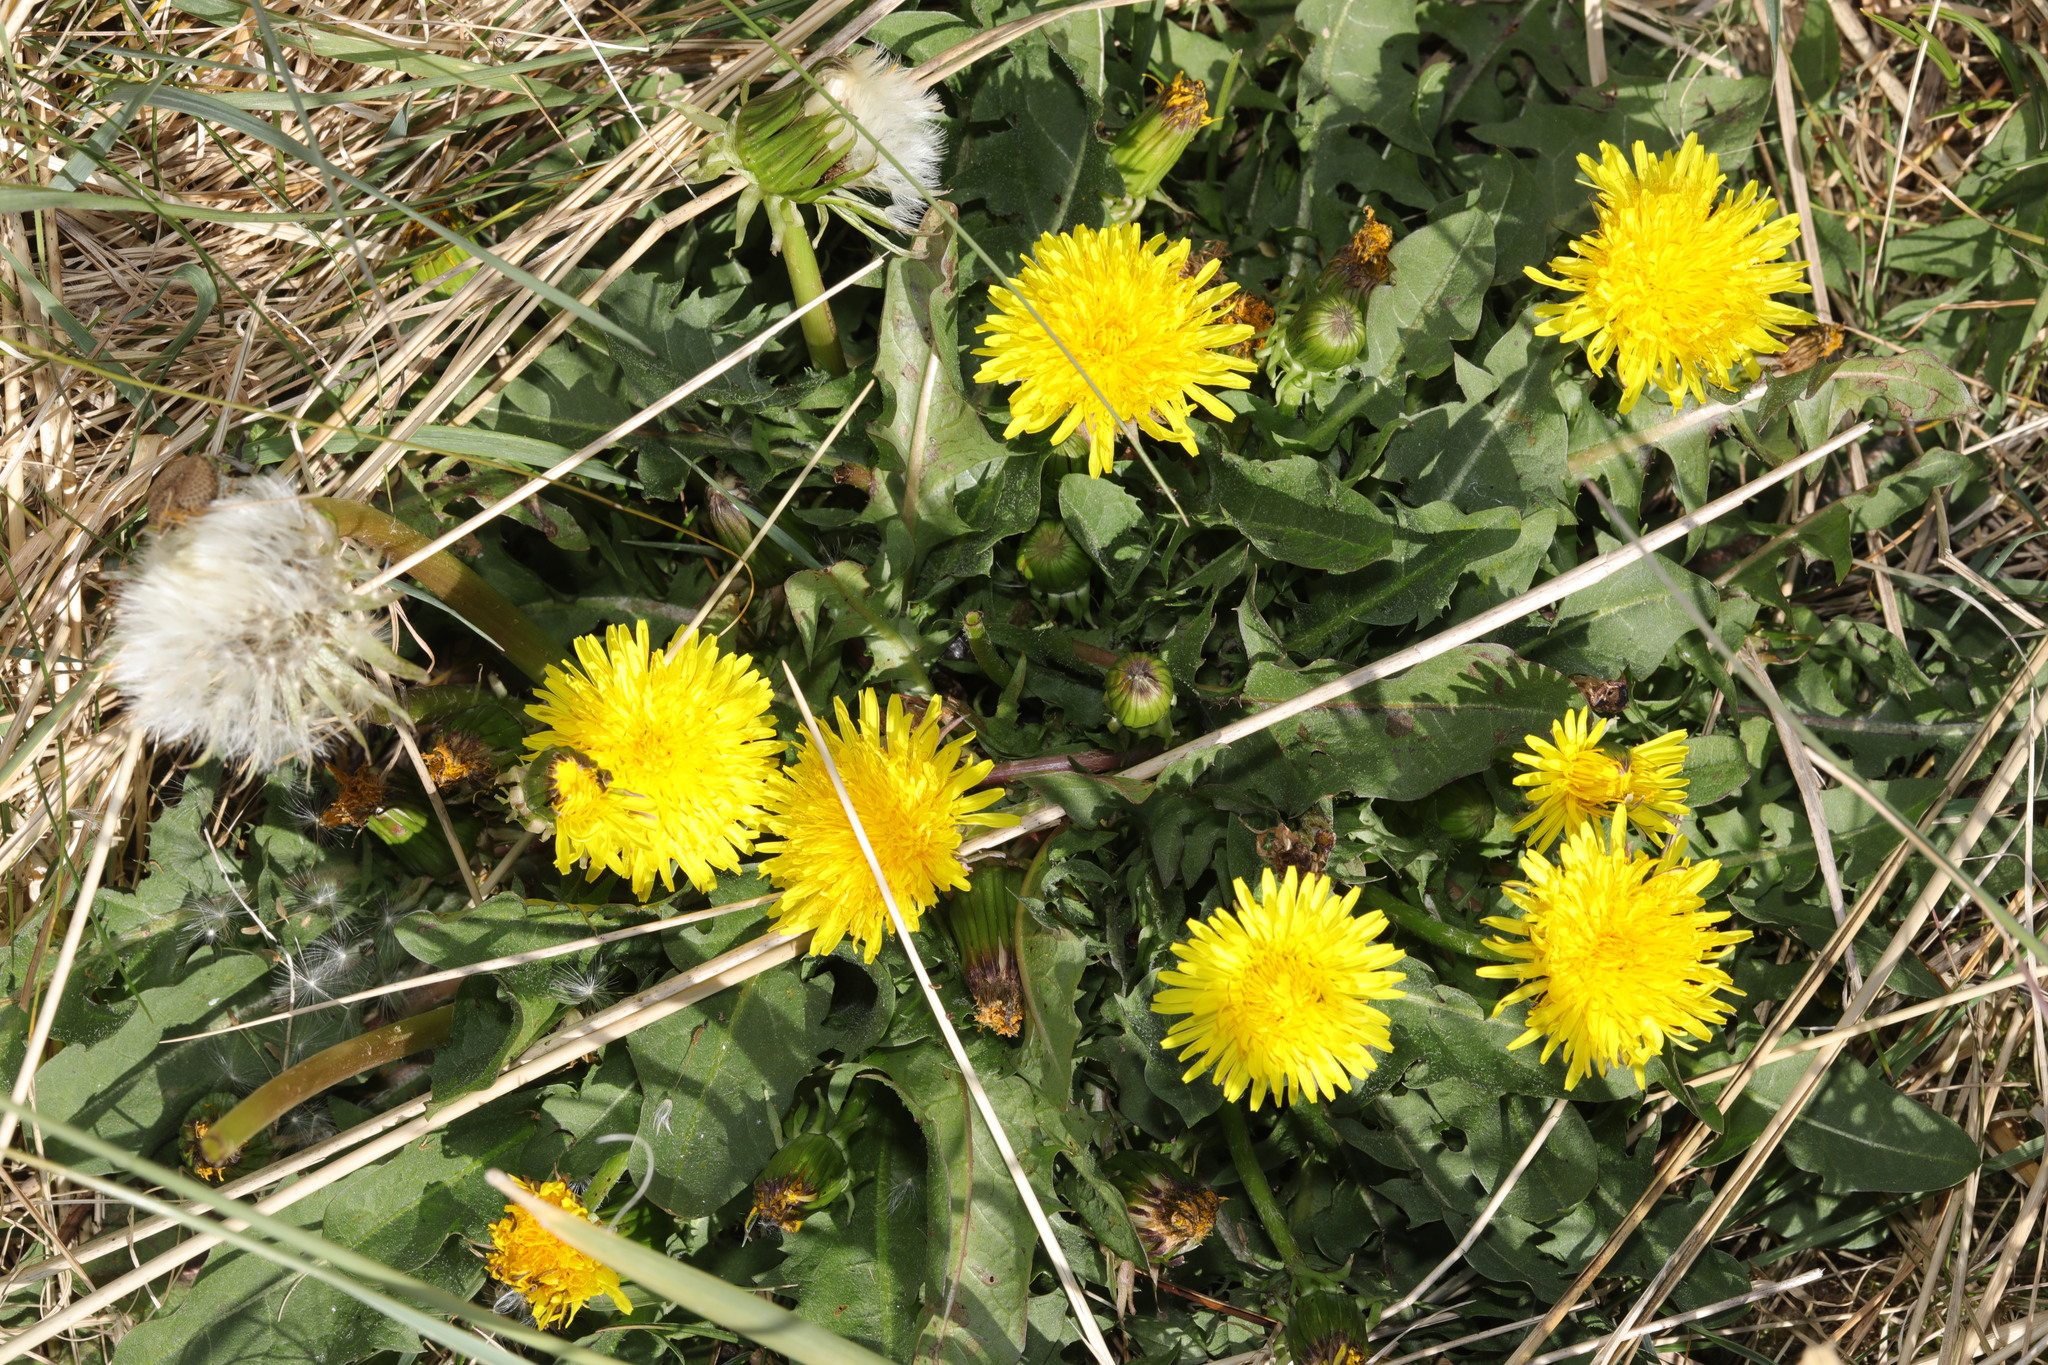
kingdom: Plantae
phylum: Tracheophyta
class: Magnoliopsida
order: Asterales
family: Asteraceae
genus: Taraxacum
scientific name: Taraxacum officinale
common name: Common dandelion
